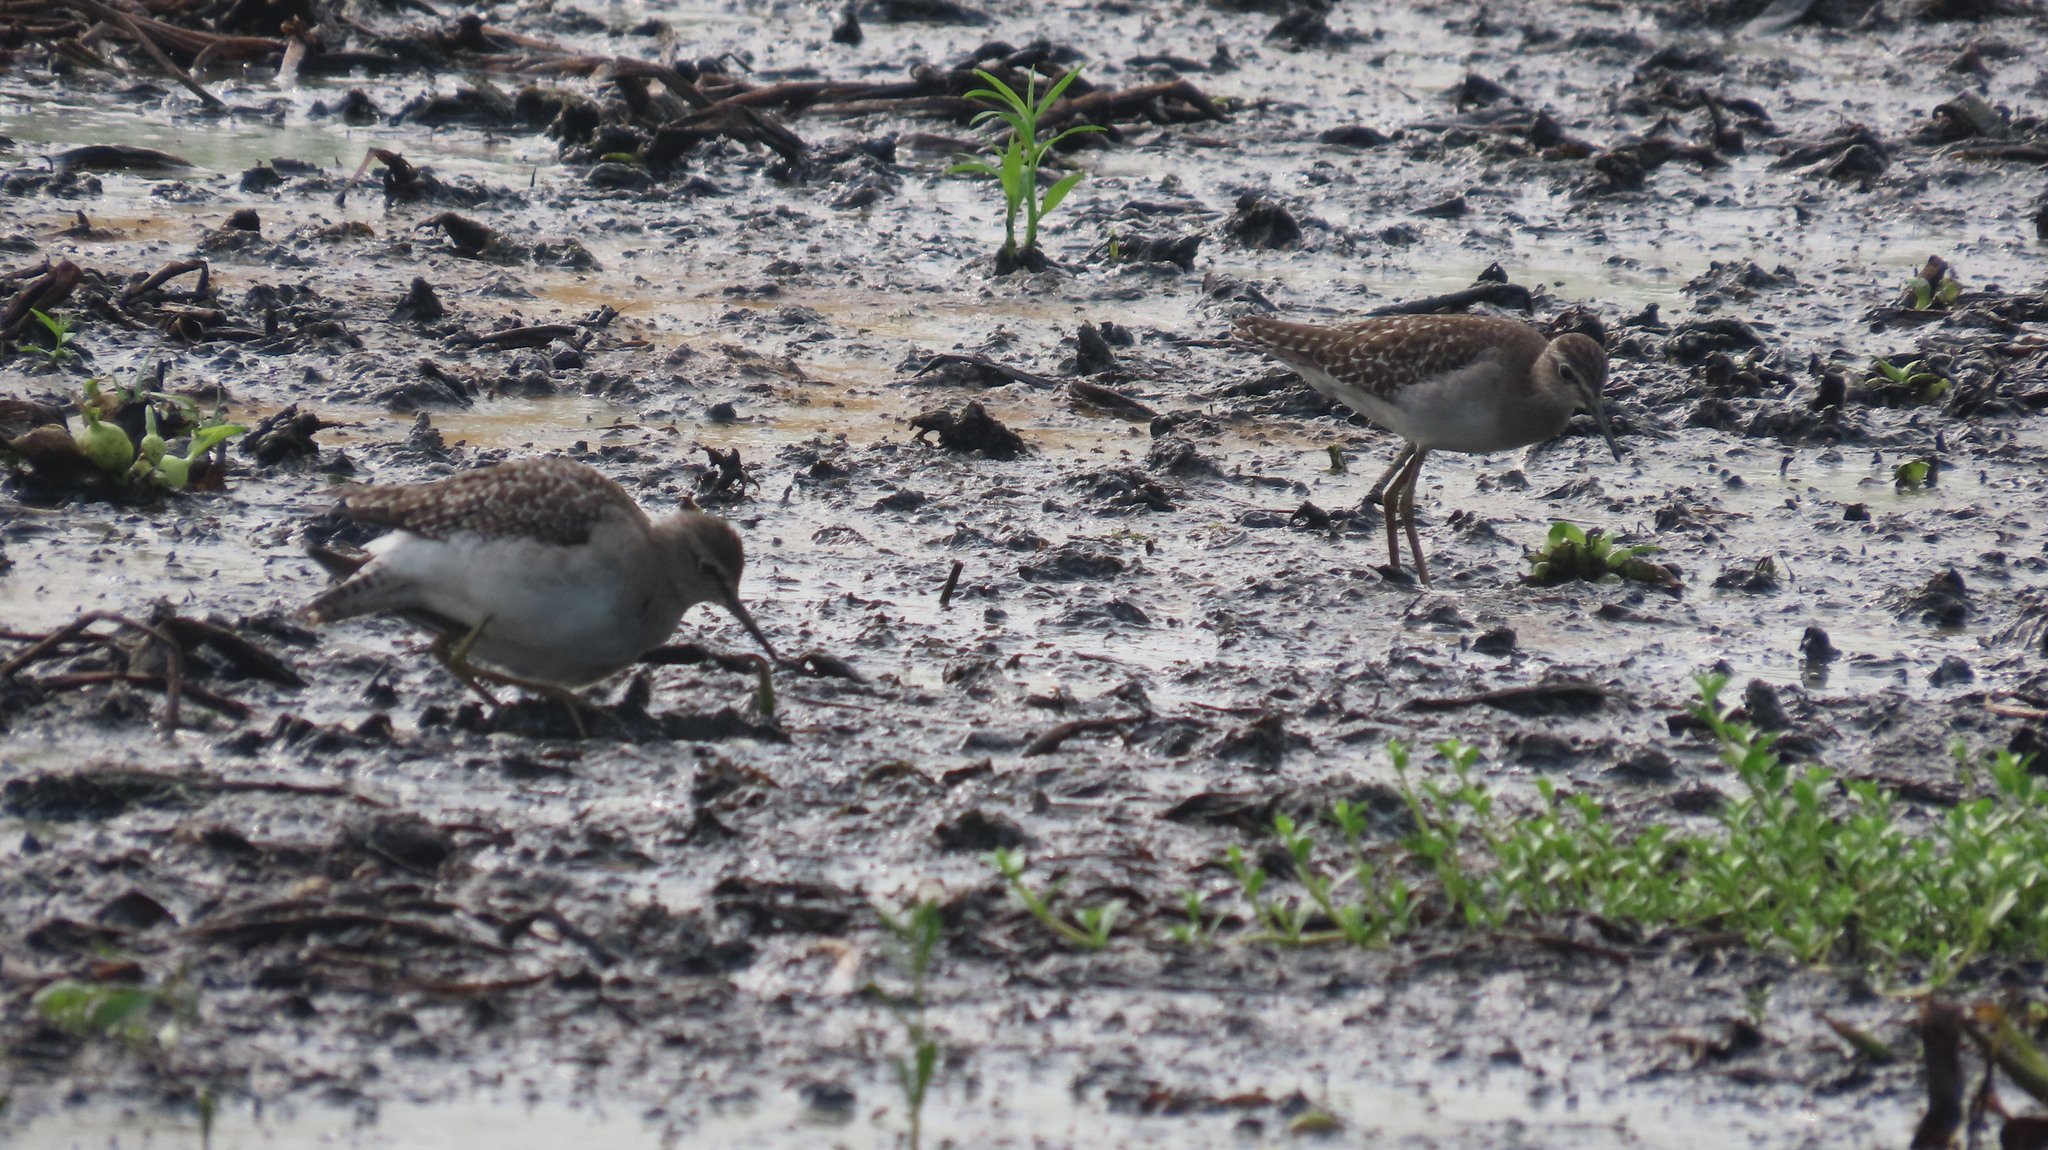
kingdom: Animalia
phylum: Chordata
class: Aves
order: Charadriiformes
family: Scolopacidae
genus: Tringa
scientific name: Tringa glareola
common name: Wood sandpiper
